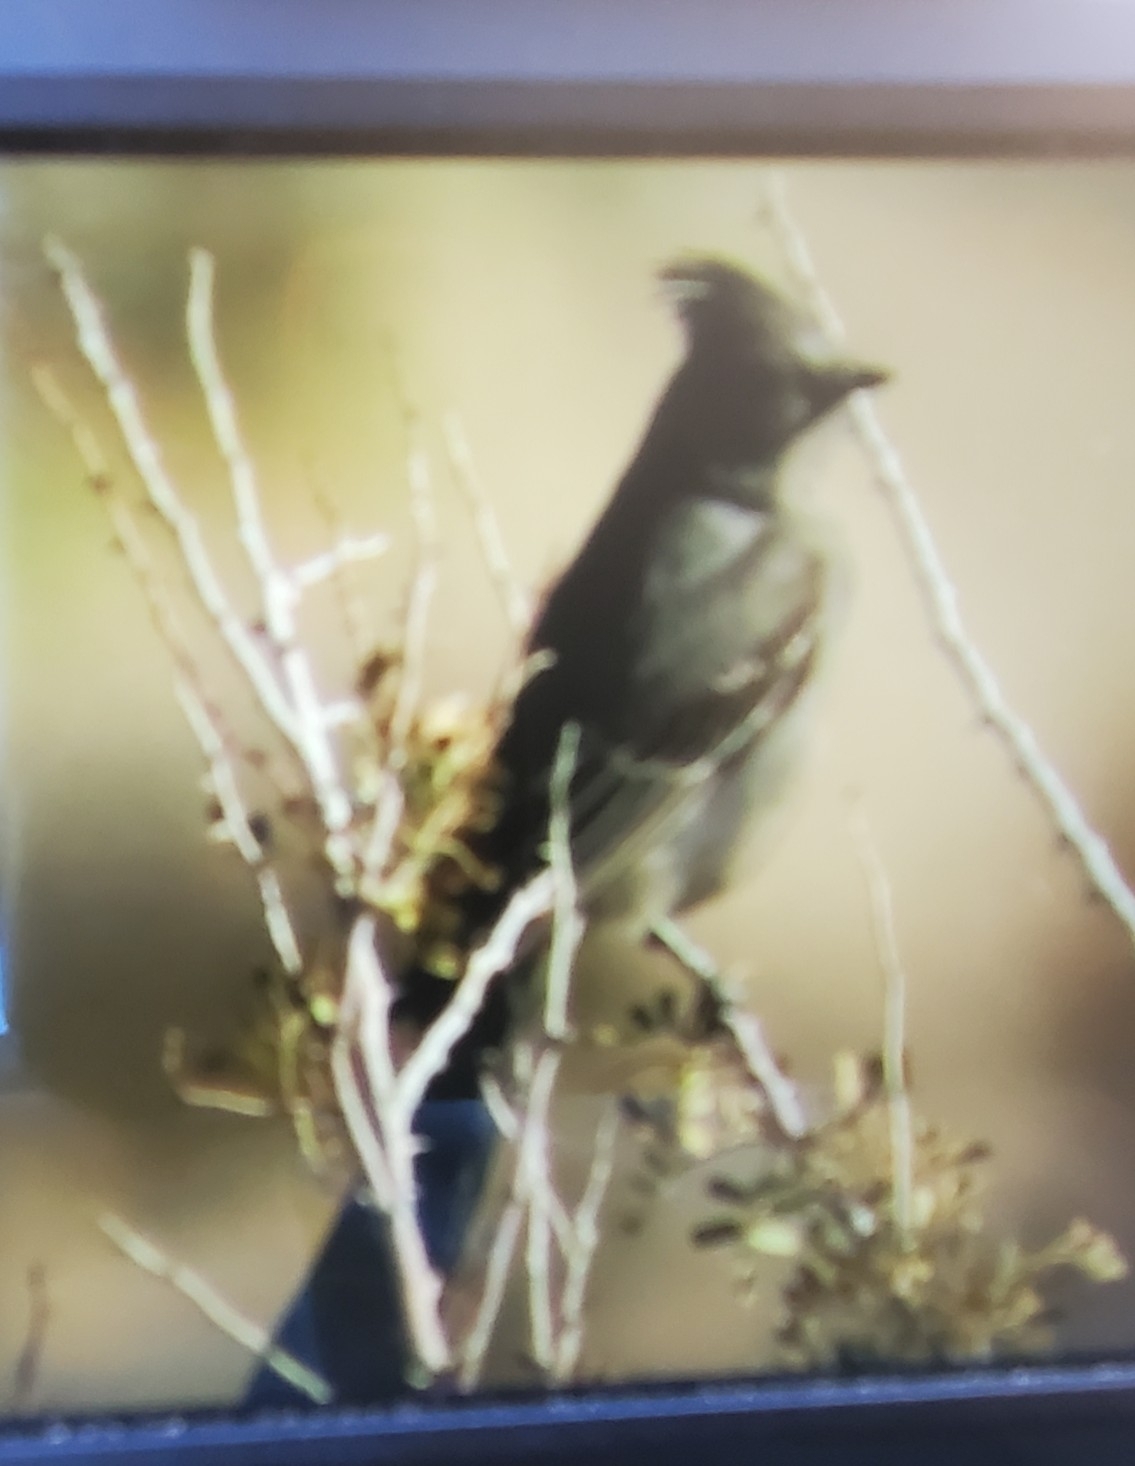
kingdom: Animalia
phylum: Chordata
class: Aves
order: Passeriformes
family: Ptilogonatidae
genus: Phainopepla
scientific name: Phainopepla nitens
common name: Phainopepla
